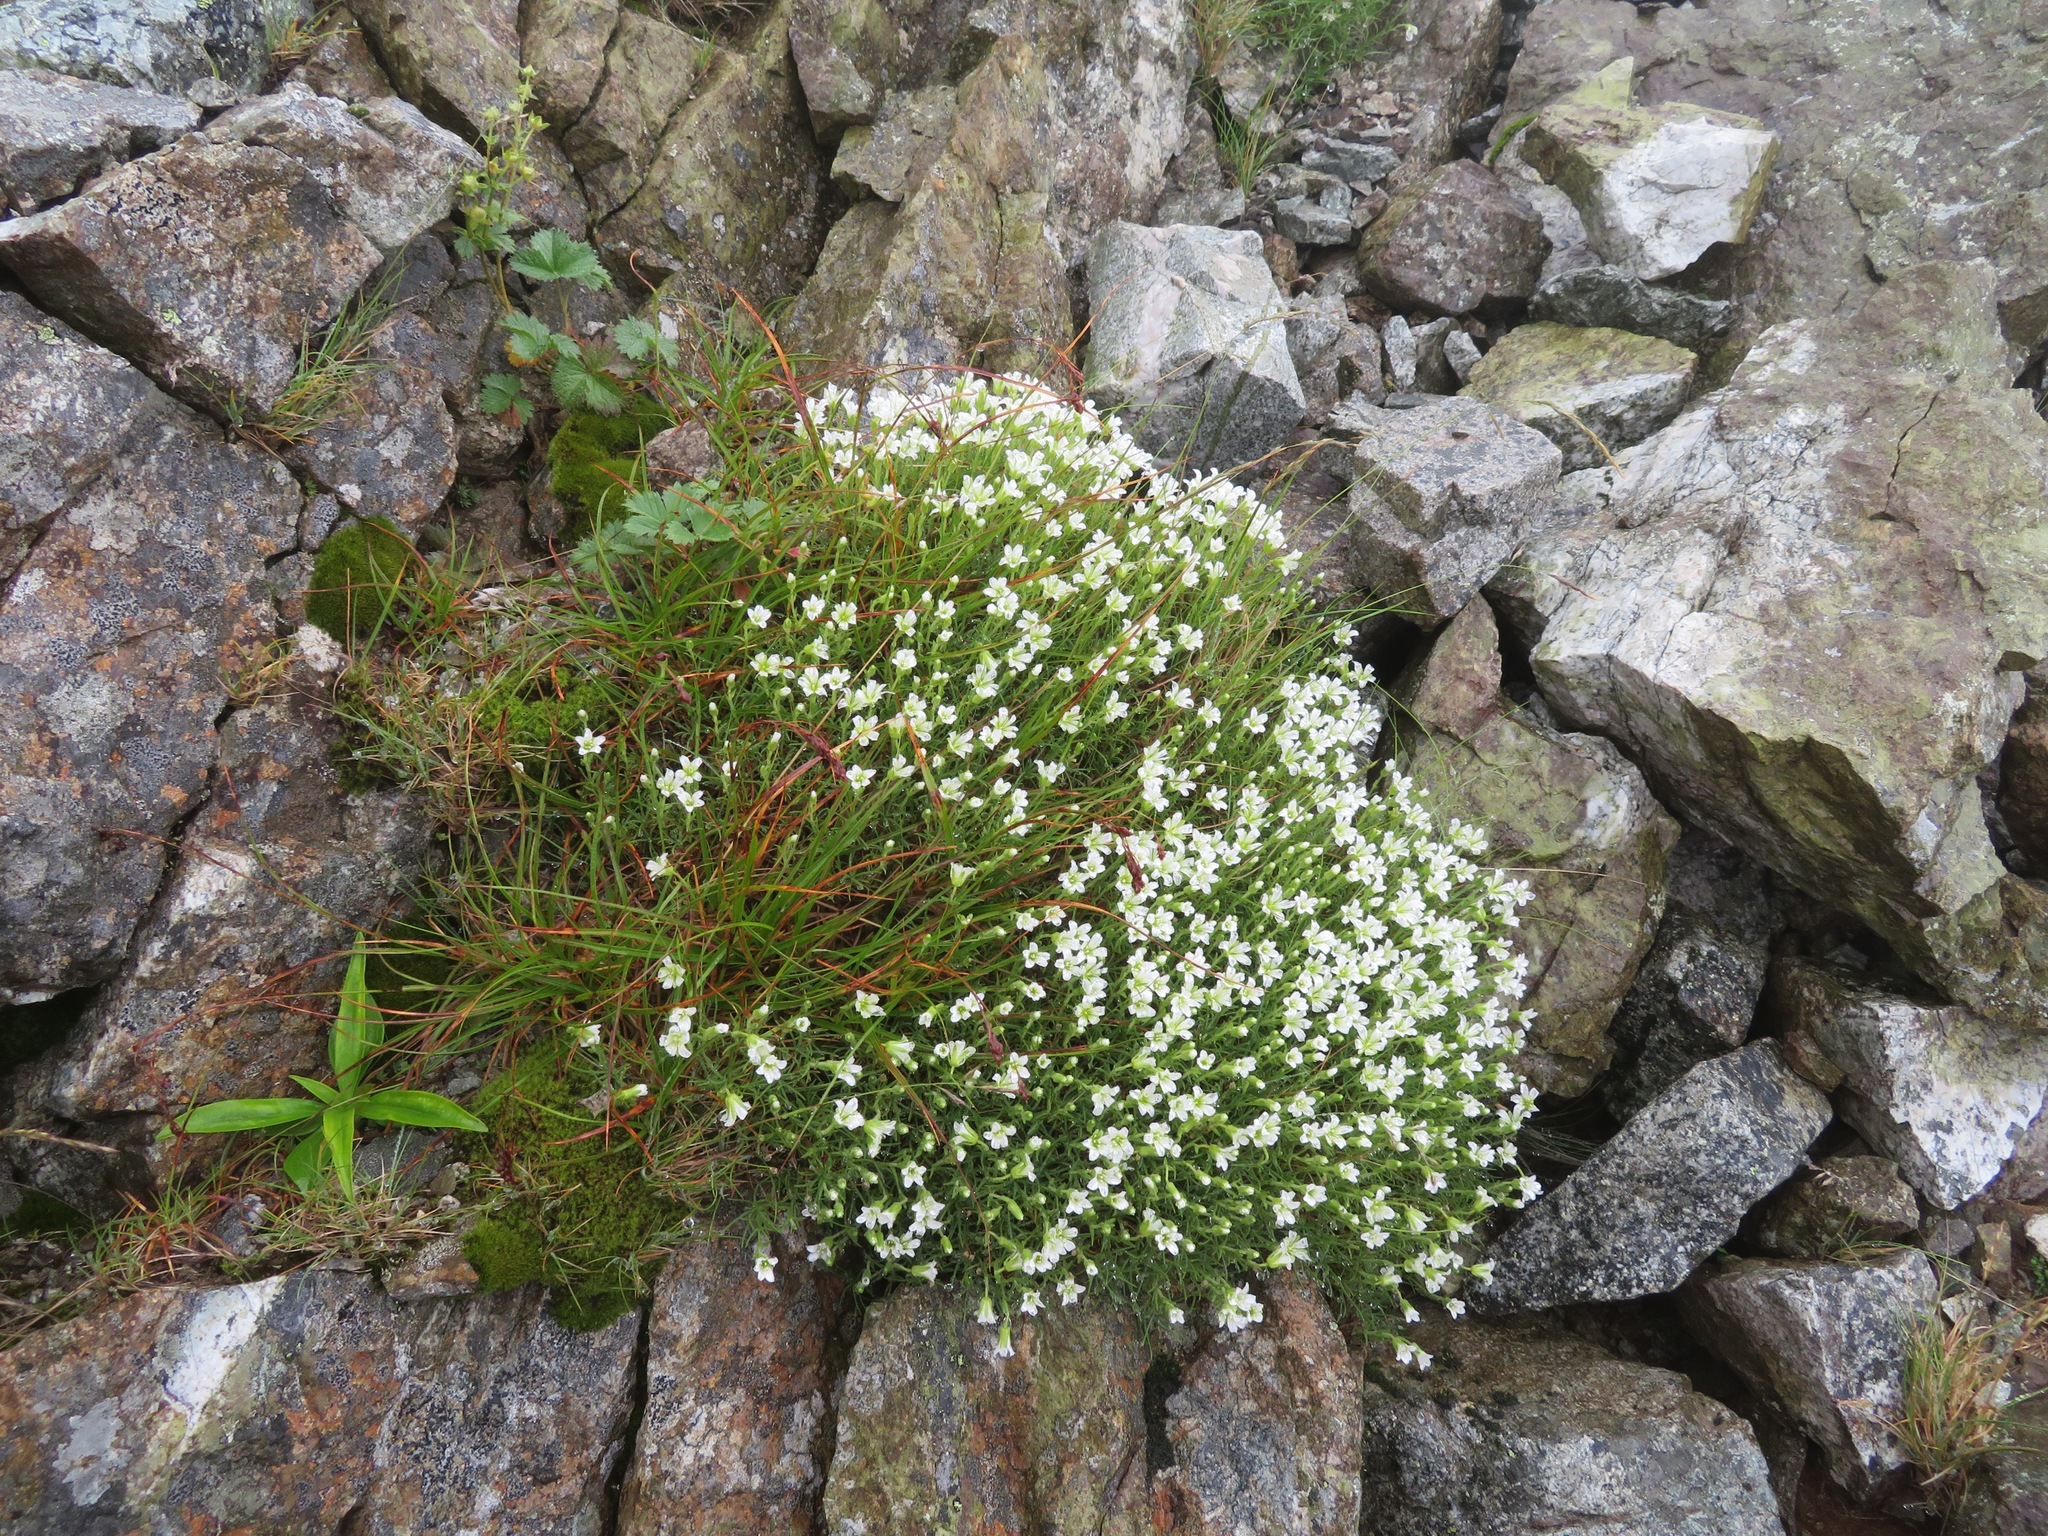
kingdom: Plantae
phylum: Tracheophyta
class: Magnoliopsida
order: Caryophyllales
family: Caryophyllaceae
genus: Cherleria
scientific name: Cherleria arctica
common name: Arctic sandwort
